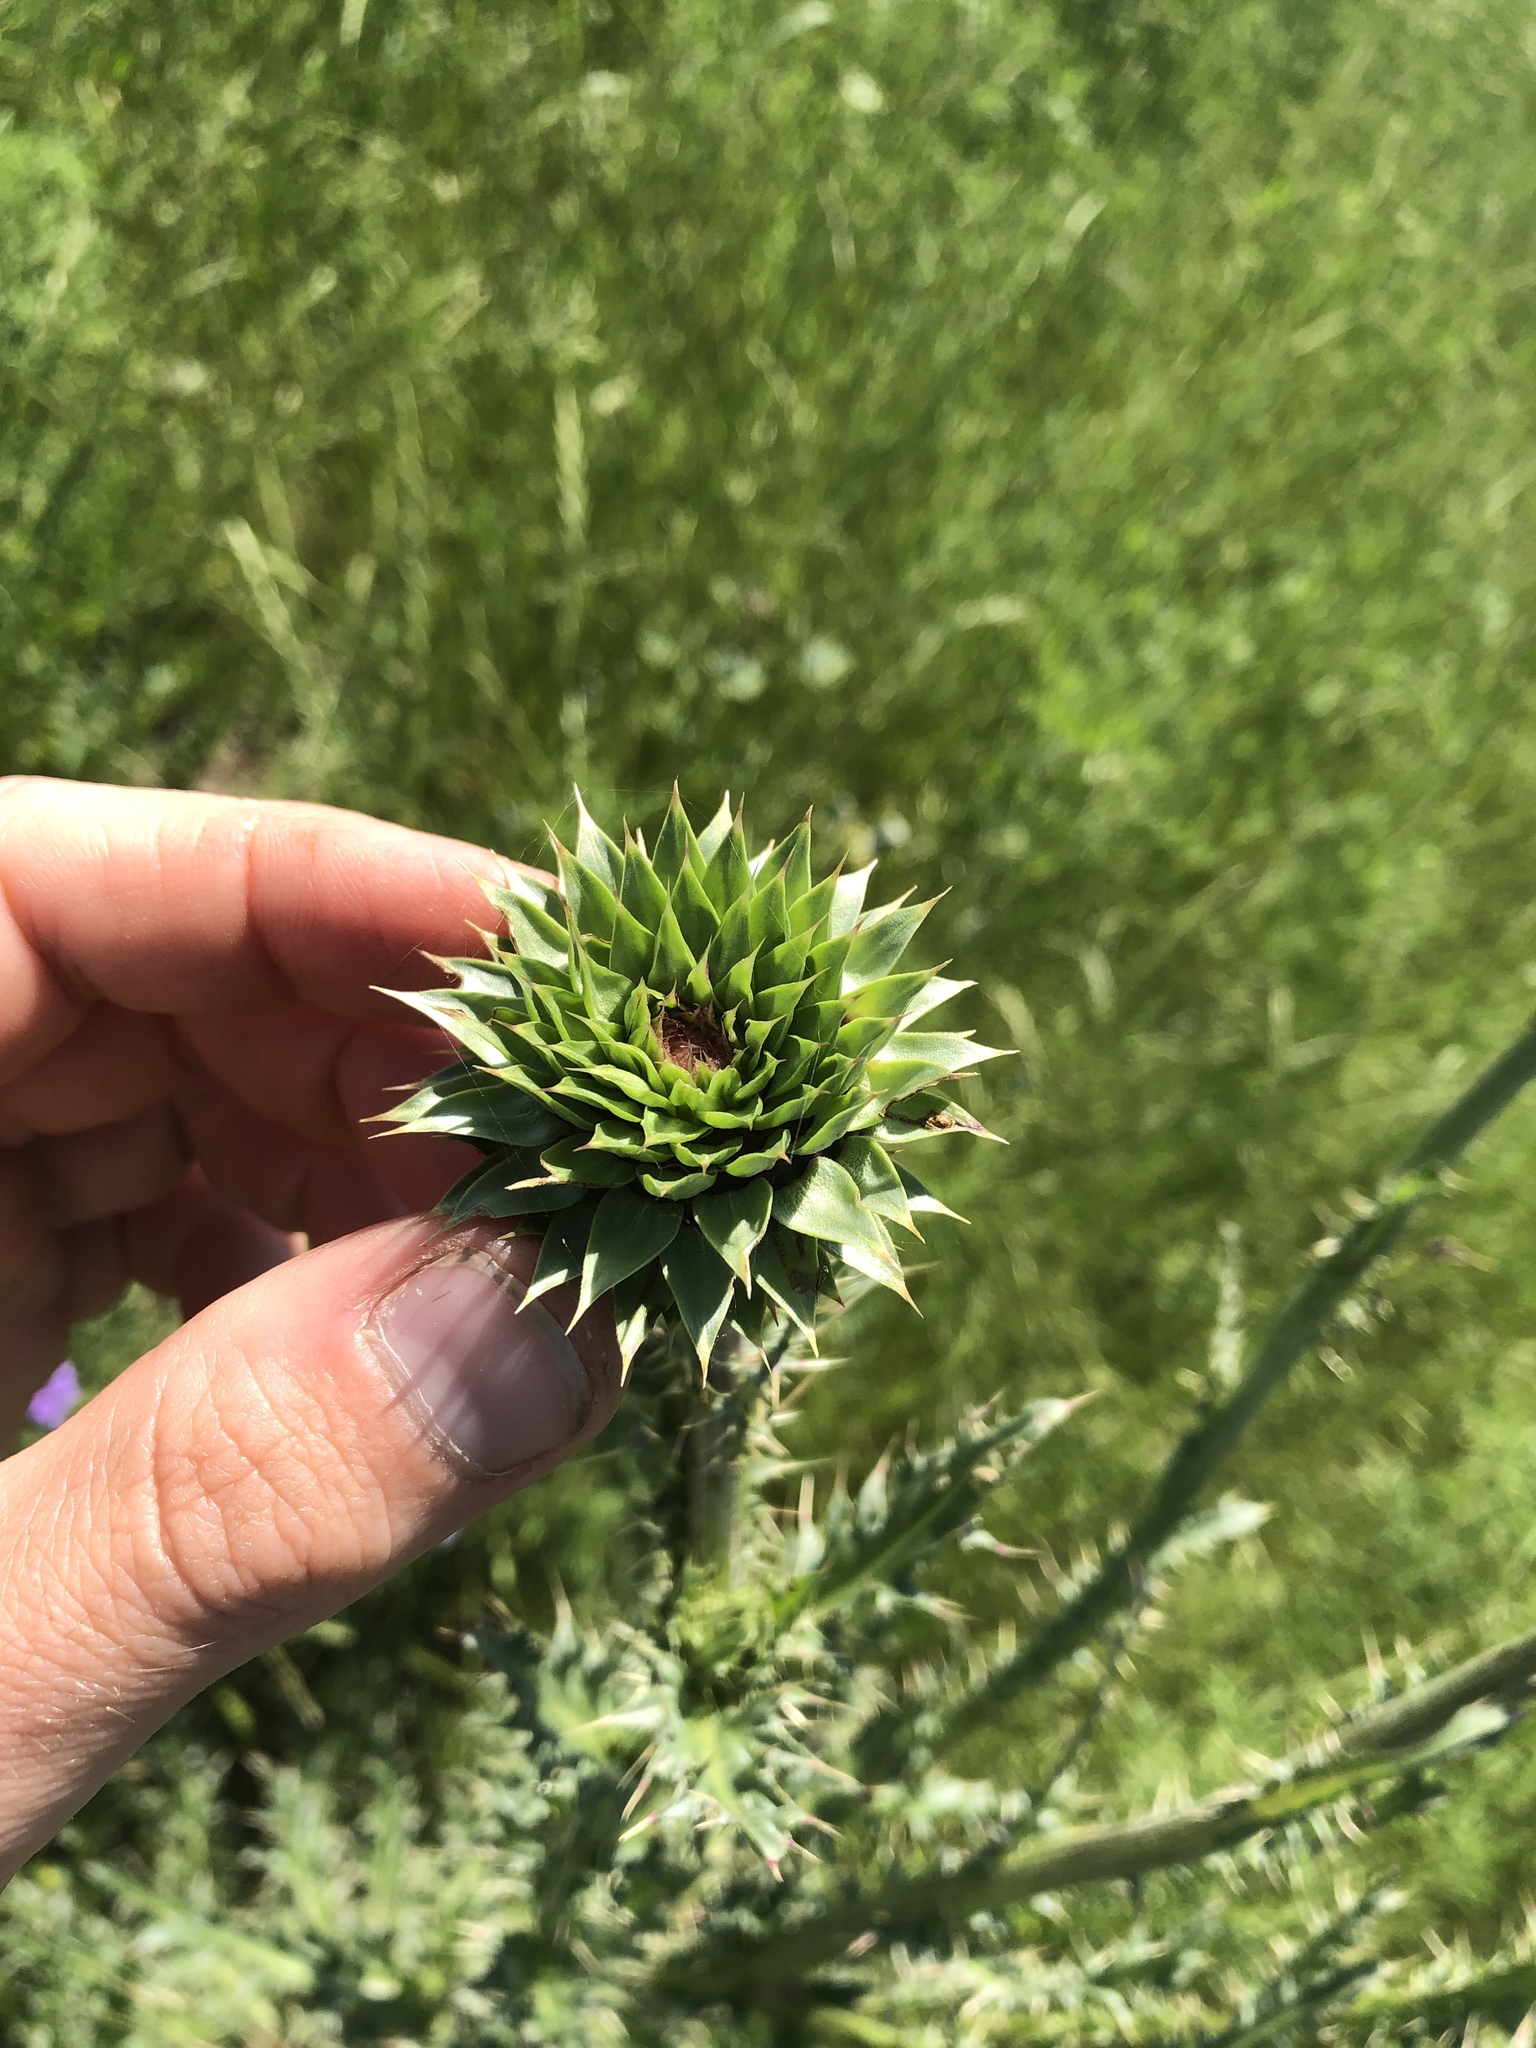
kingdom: Plantae
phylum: Tracheophyta
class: Magnoliopsida
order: Asterales
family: Asteraceae
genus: Carduus
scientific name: Carduus nutans
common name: Musk thistle
